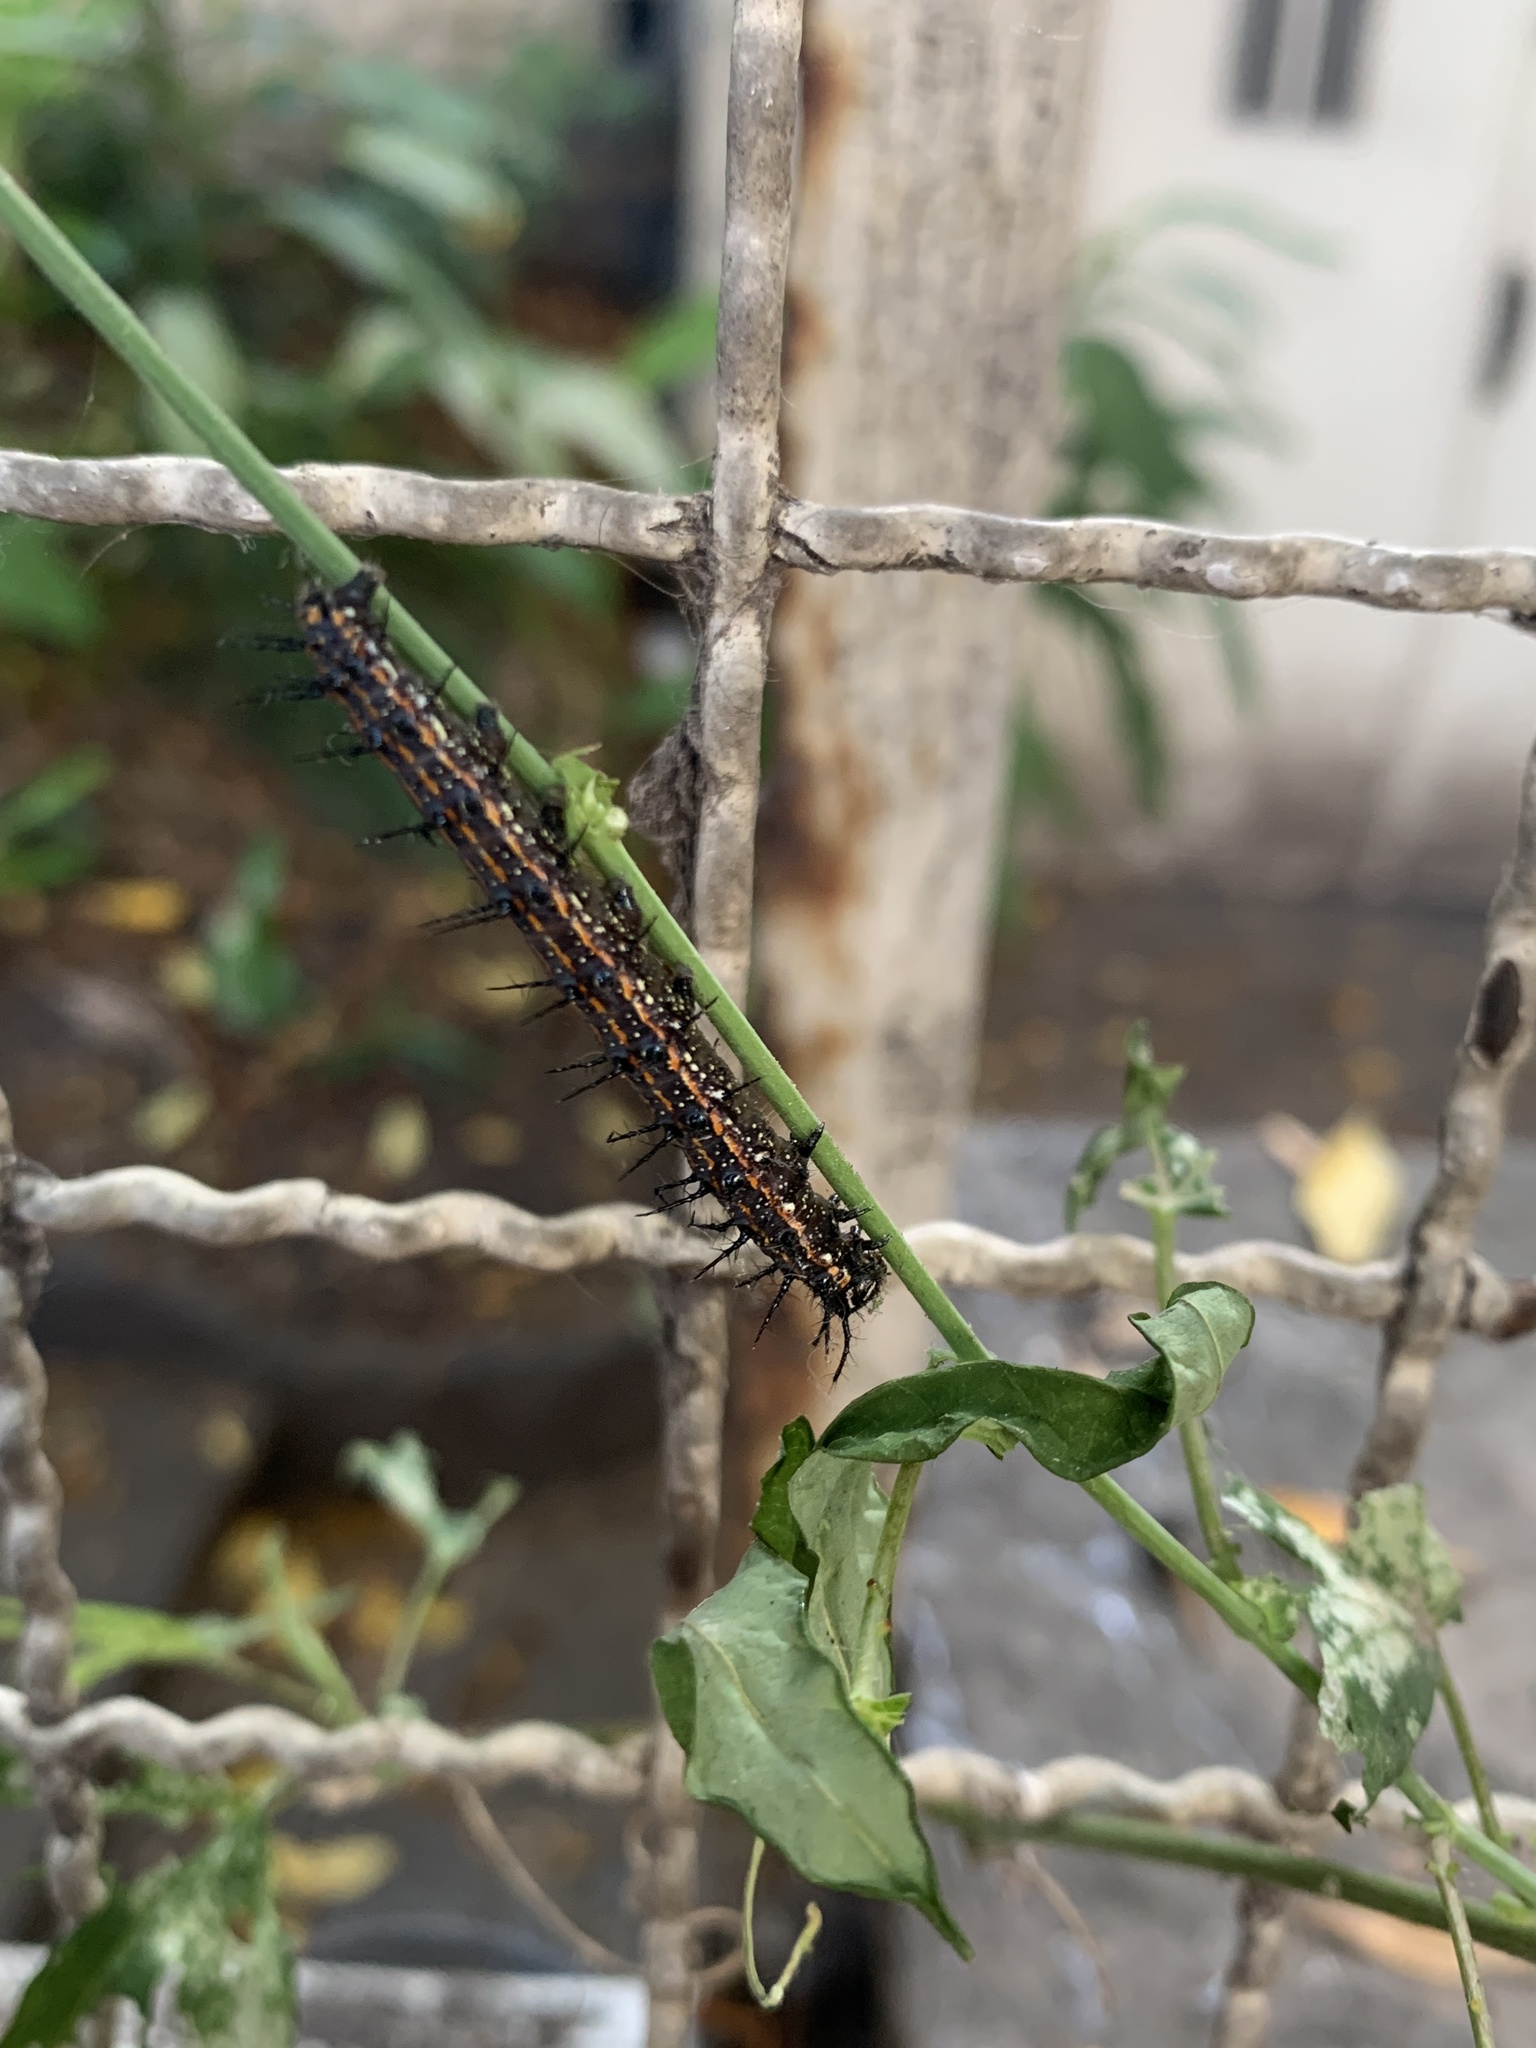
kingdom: Animalia
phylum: Arthropoda
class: Insecta
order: Lepidoptera
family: Nymphalidae
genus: Dione
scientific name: Dione vanillae
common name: Gulf fritillary
